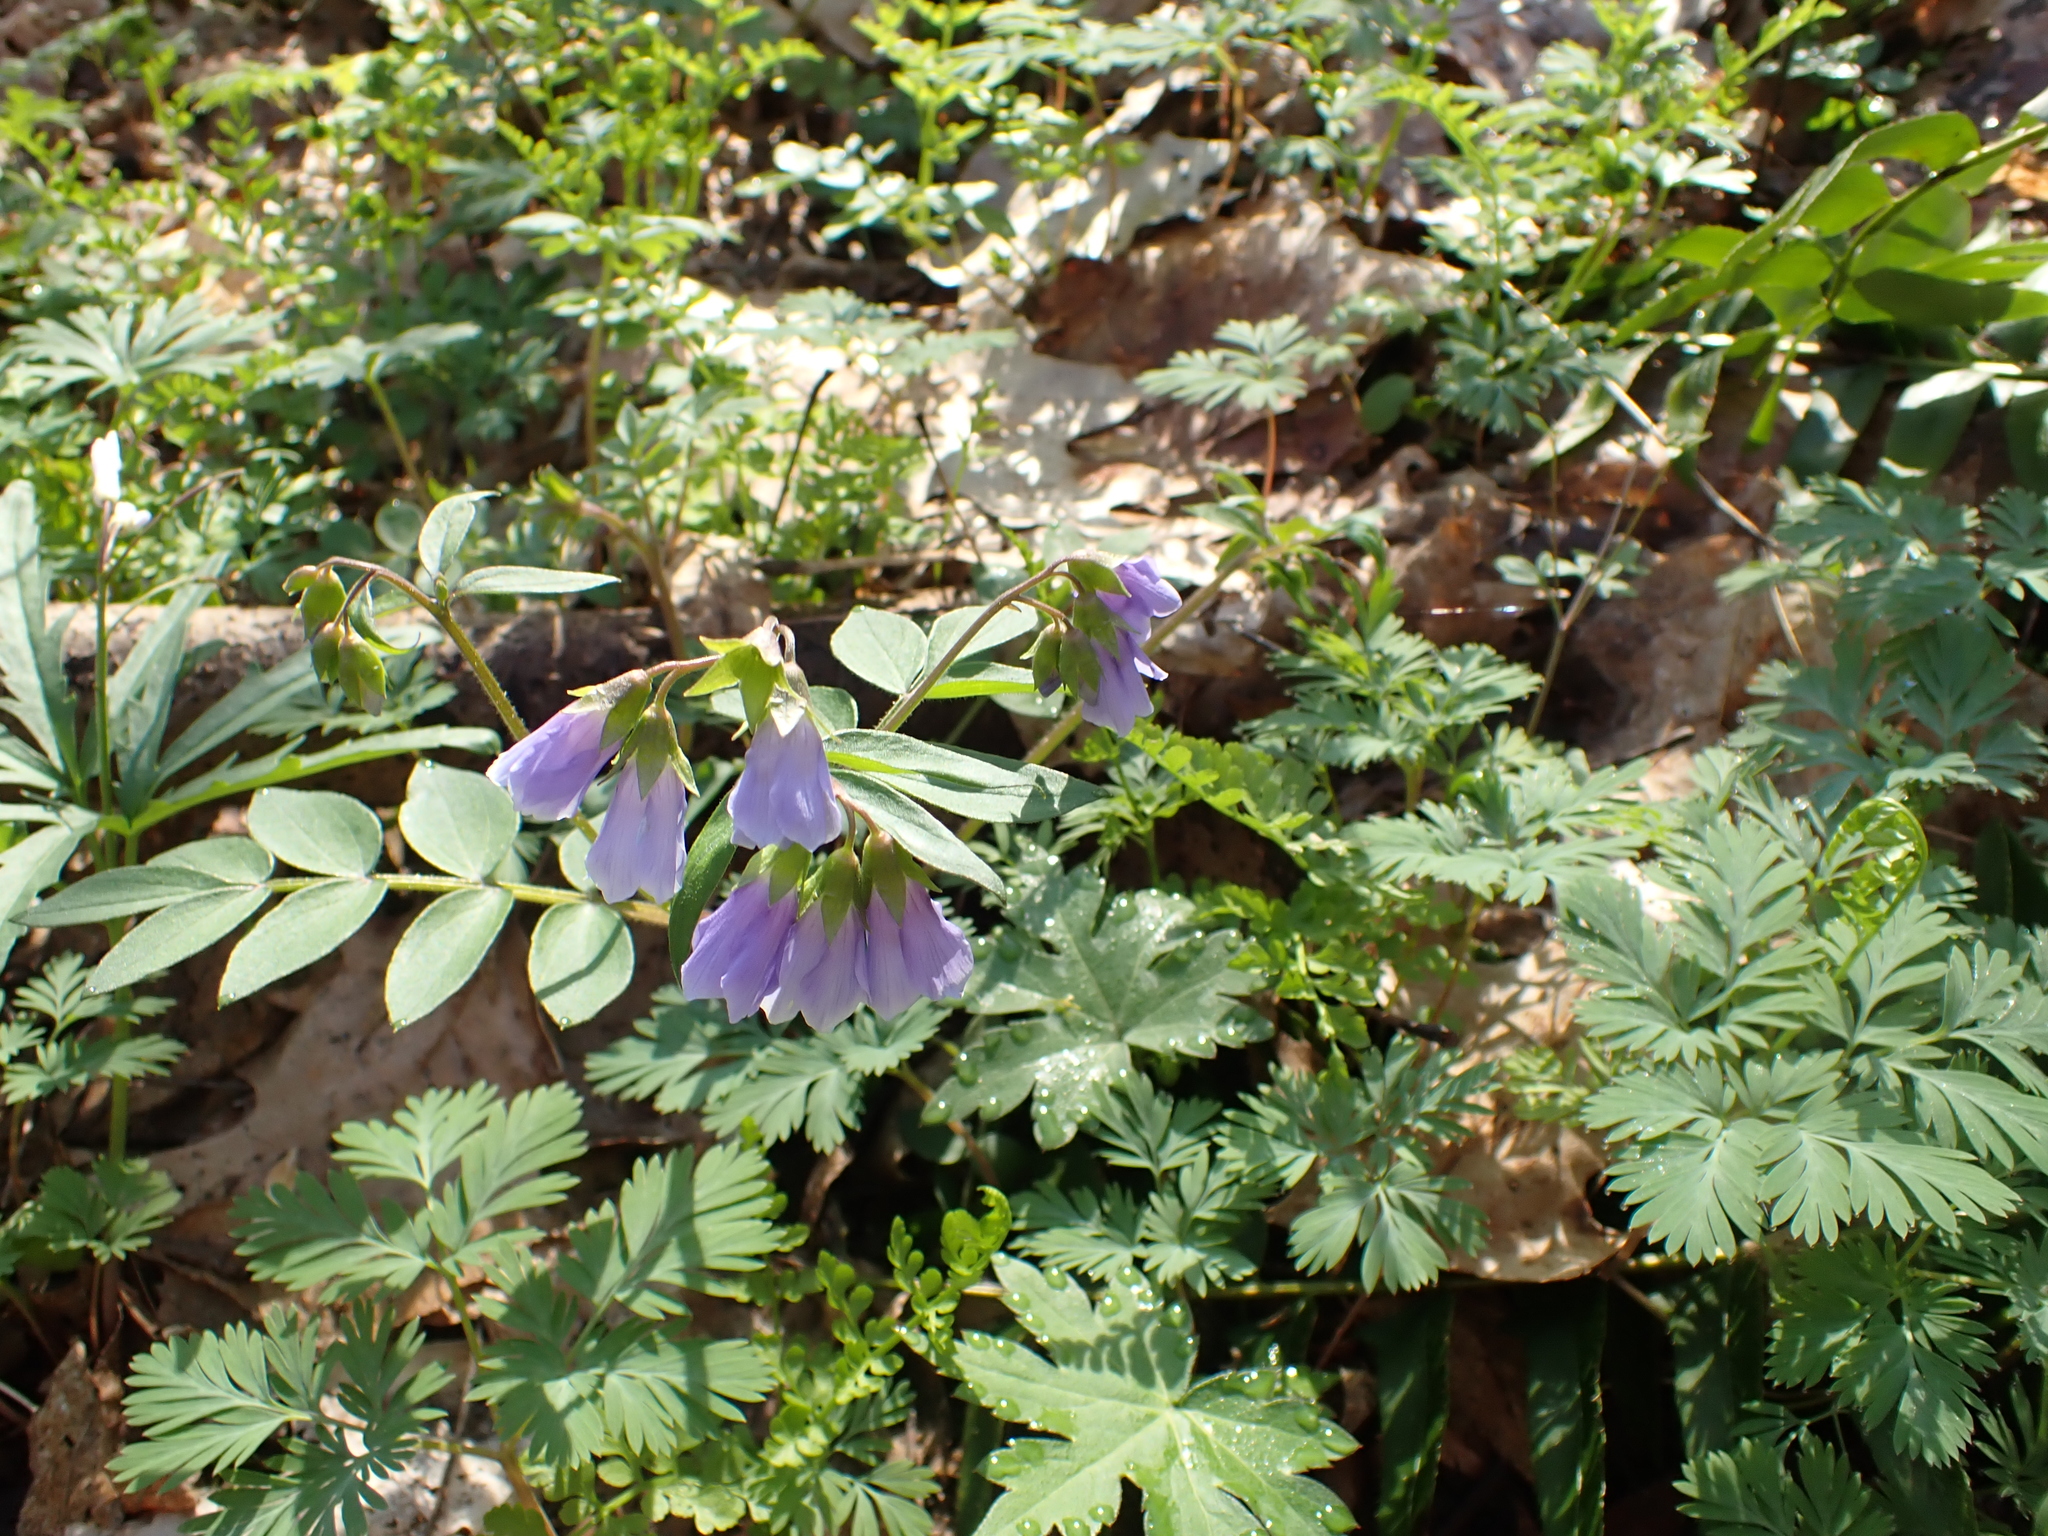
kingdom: Plantae
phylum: Tracheophyta
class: Magnoliopsida
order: Ericales
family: Polemoniaceae
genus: Polemonium
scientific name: Polemonium reptans
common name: Creeping jacob's-ladder
